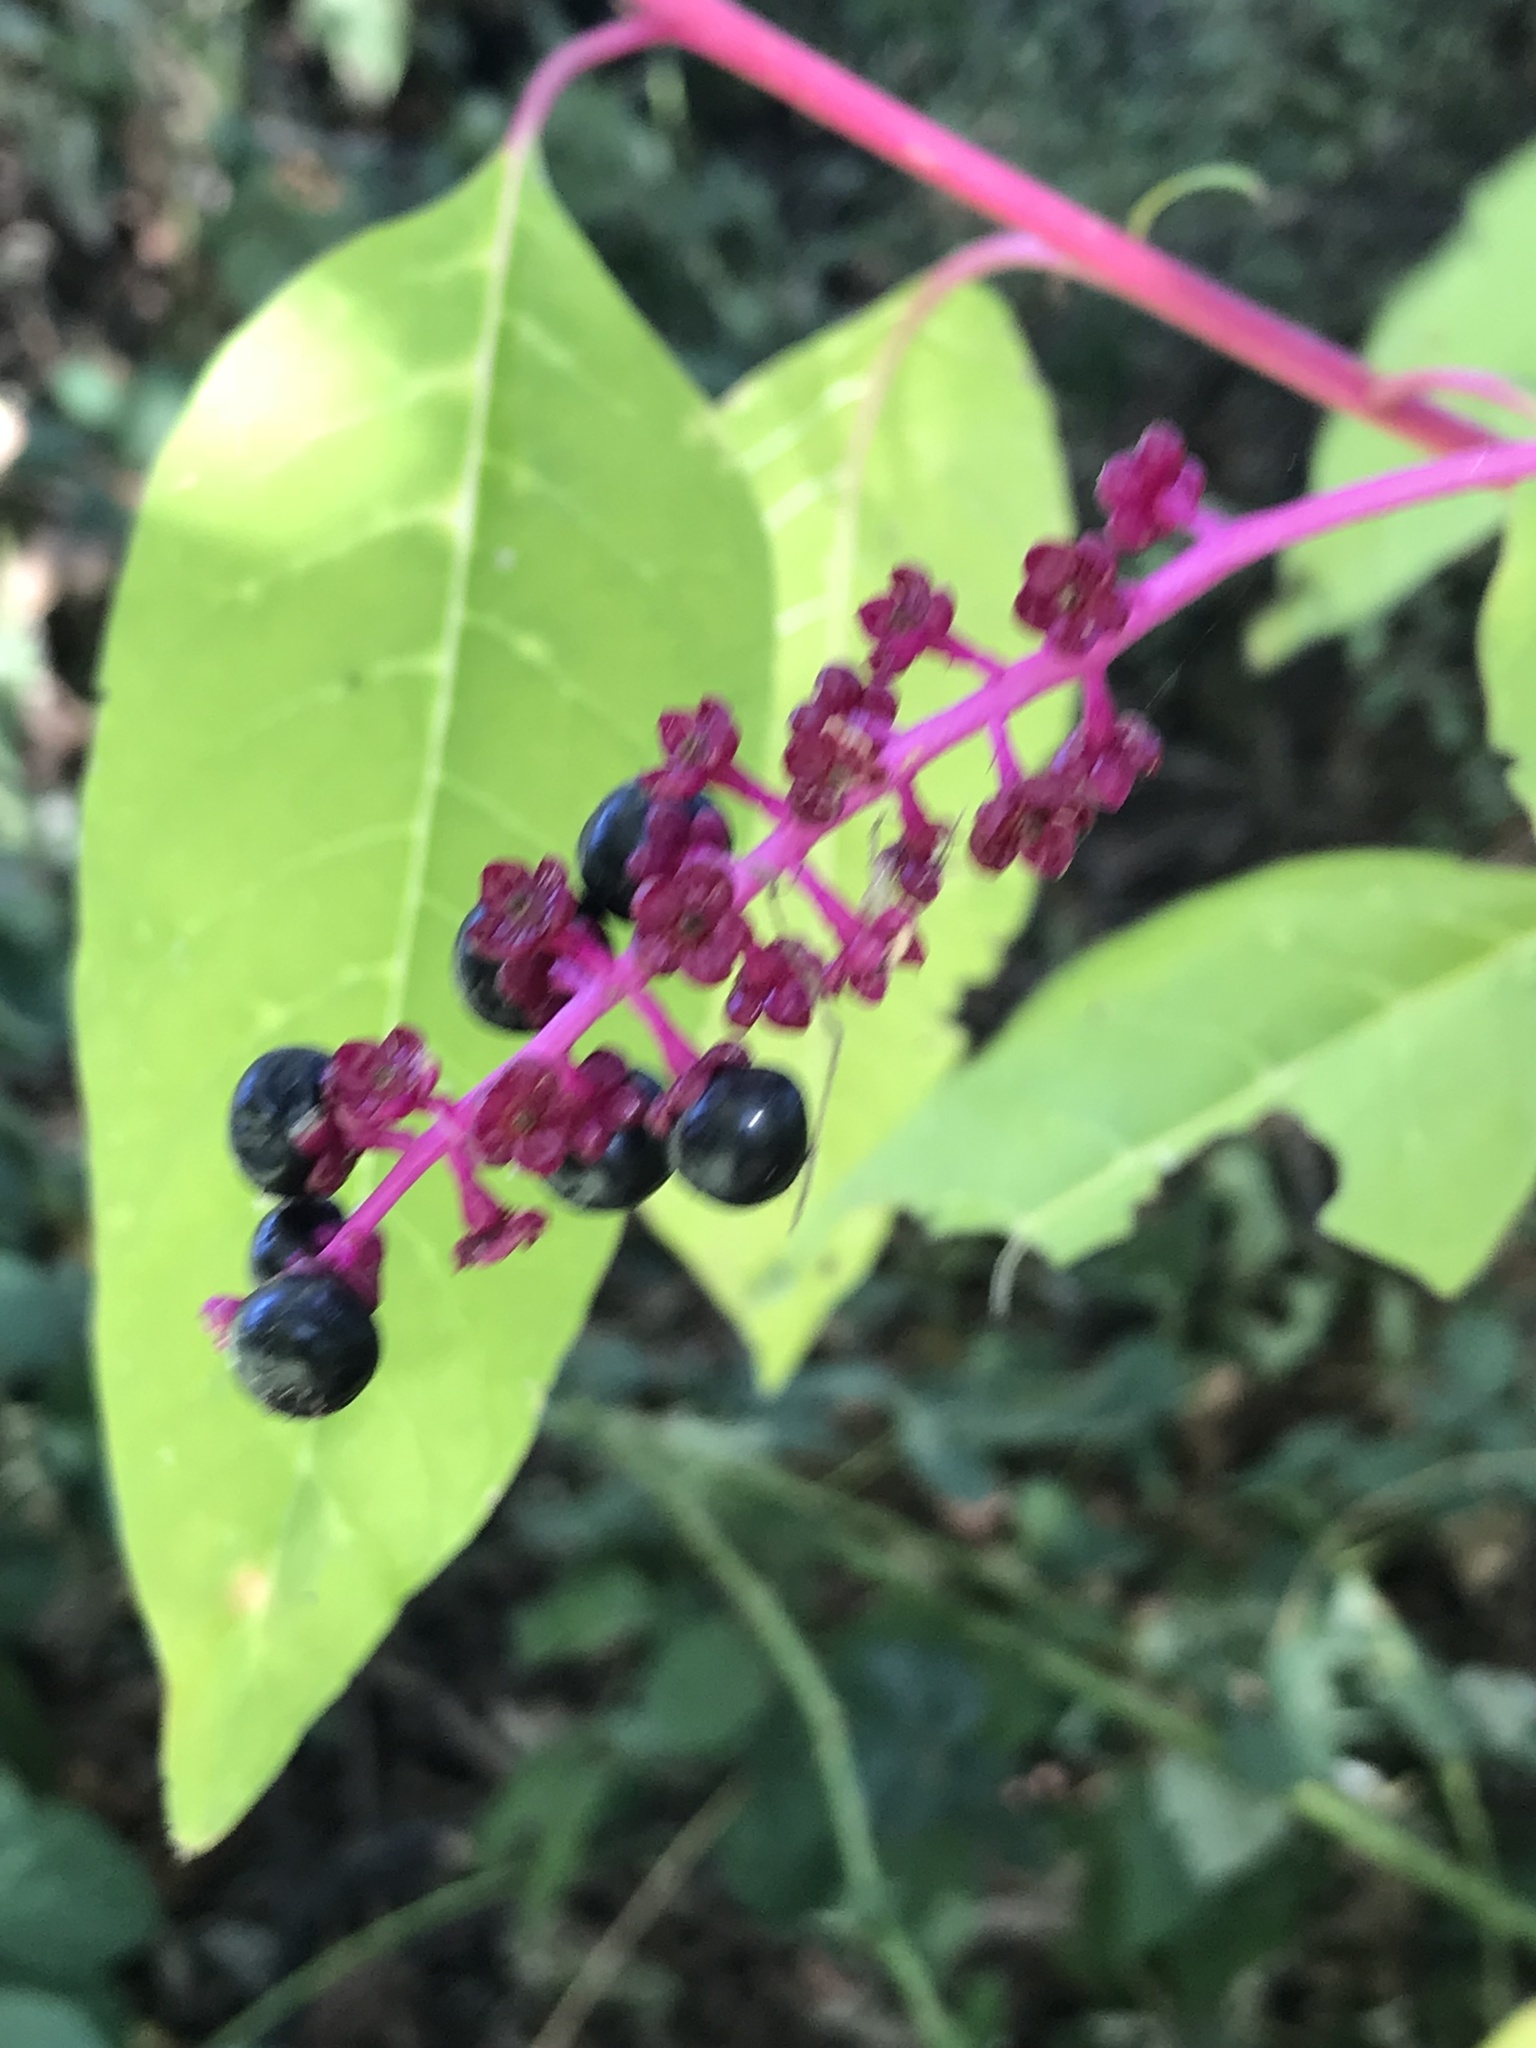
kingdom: Plantae
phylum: Tracheophyta
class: Magnoliopsida
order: Caryophyllales
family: Phytolaccaceae
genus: Phytolacca
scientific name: Phytolacca americana
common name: American pokeweed
